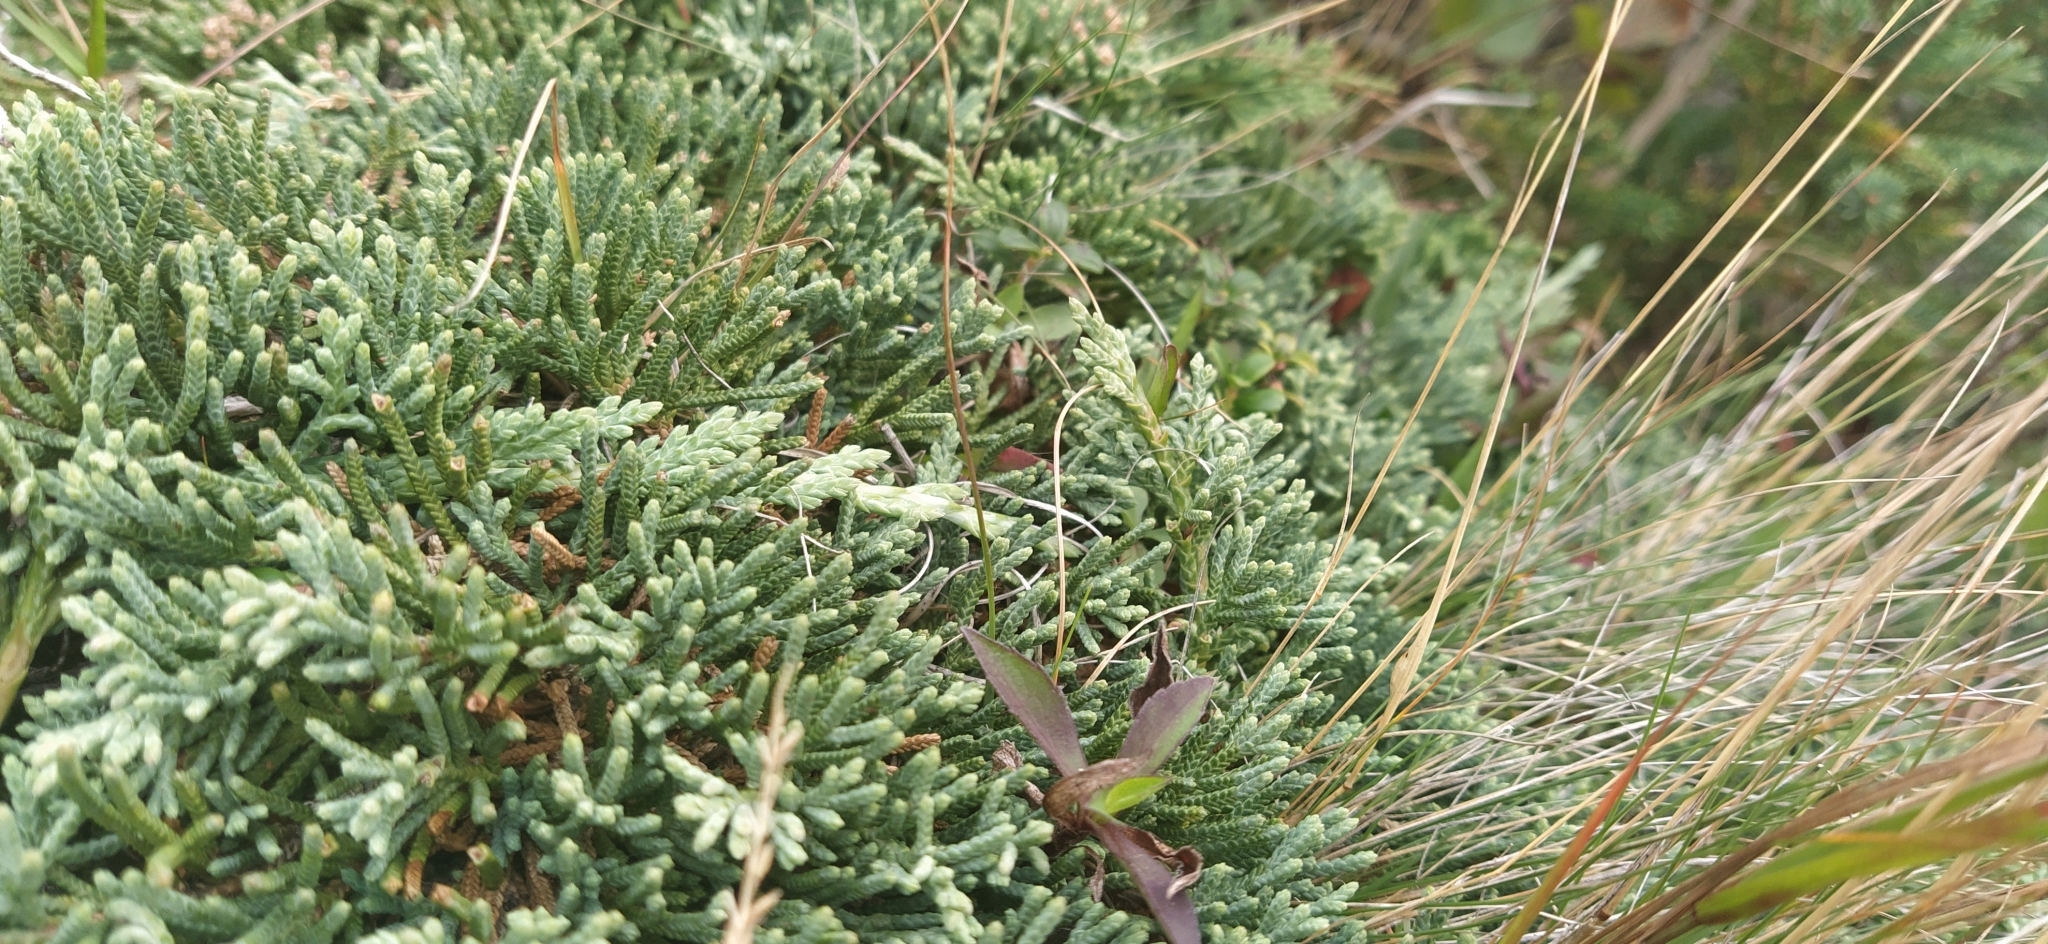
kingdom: Plantae
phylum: Tracheophyta
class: Pinopsida
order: Pinales
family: Cupressaceae
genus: Juniperus
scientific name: Juniperus horizontalis
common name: Creeping juniper
